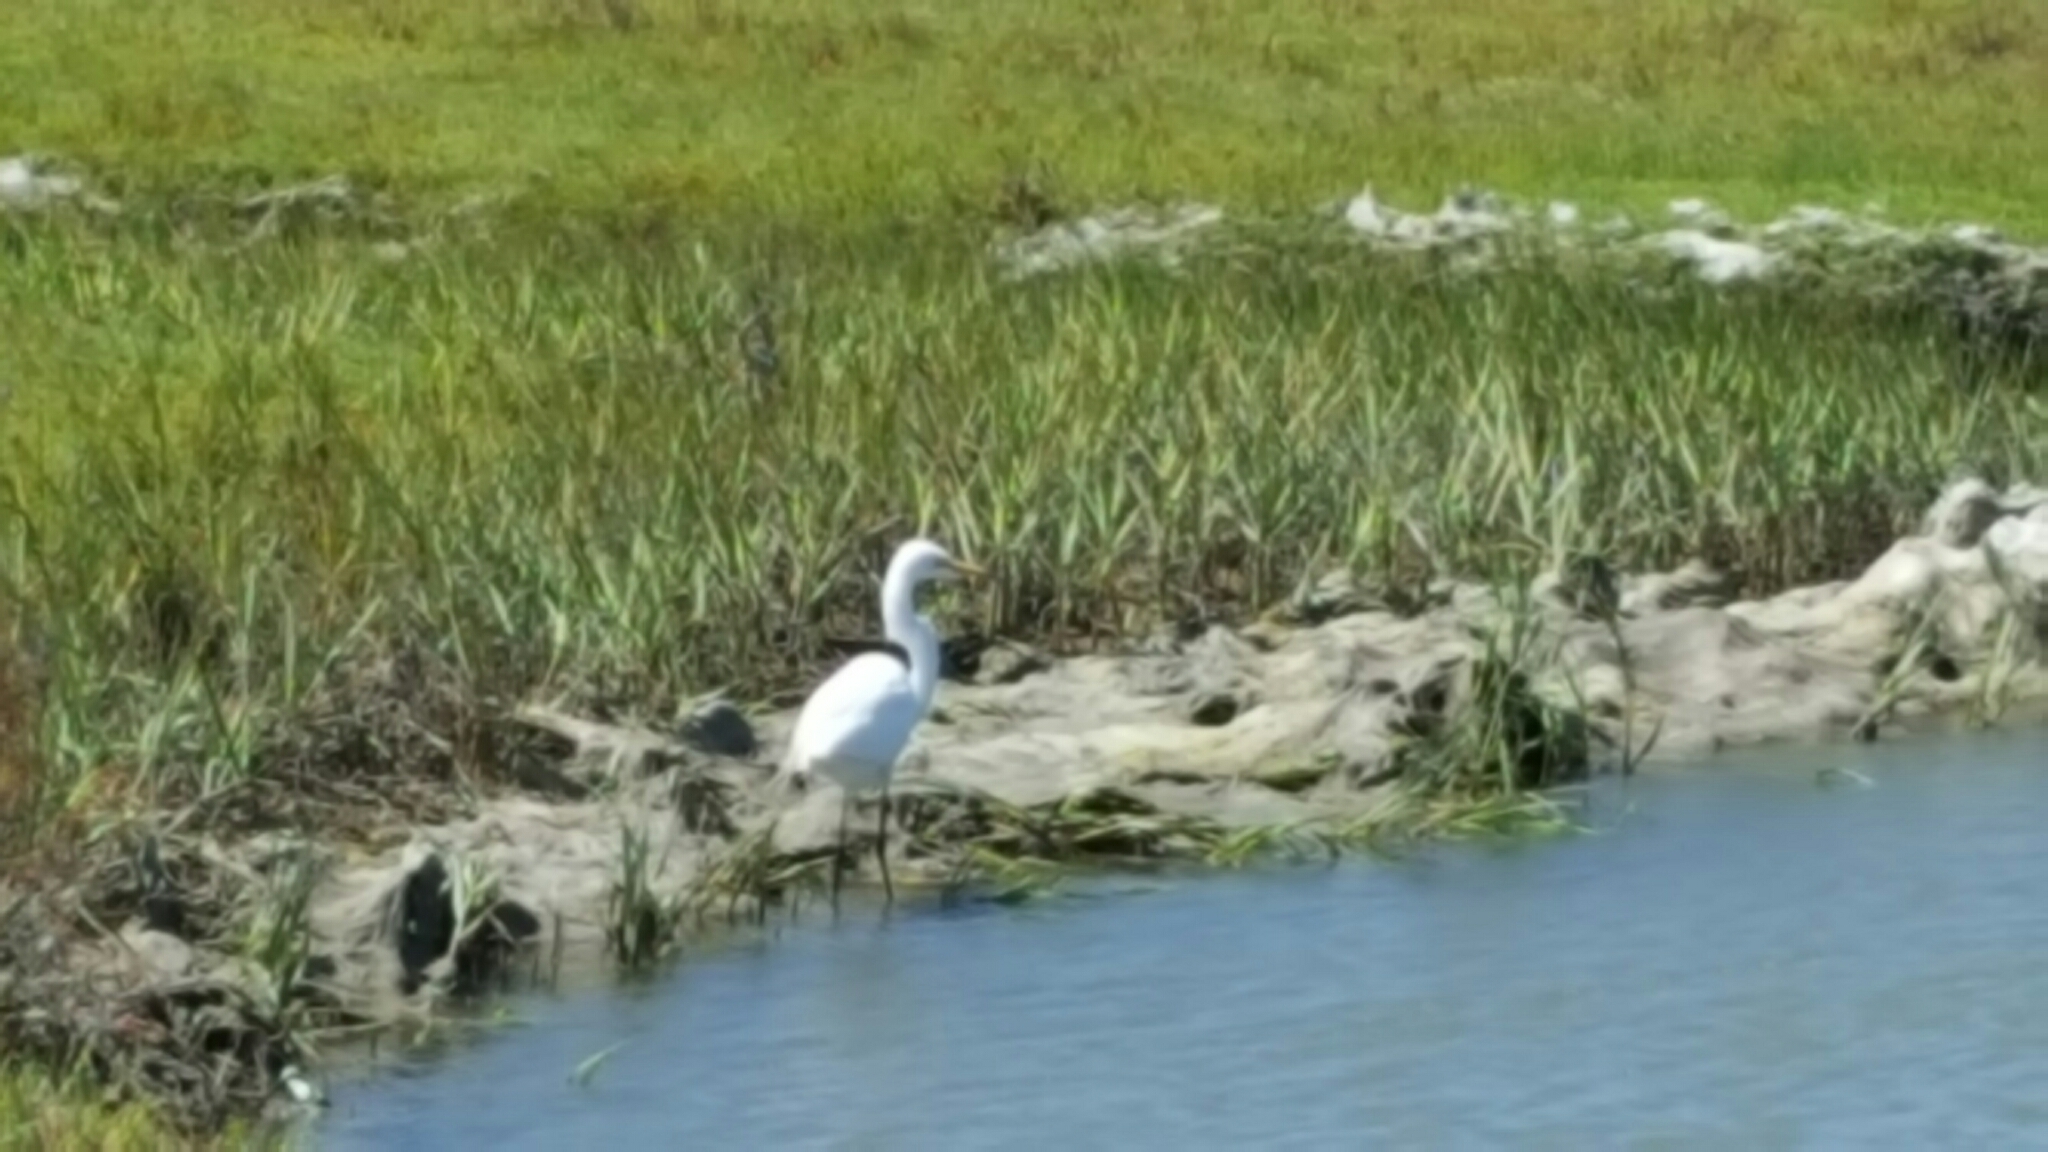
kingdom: Animalia
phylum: Chordata
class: Aves
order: Pelecaniformes
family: Ardeidae
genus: Ardea
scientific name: Ardea alba
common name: Great egret
